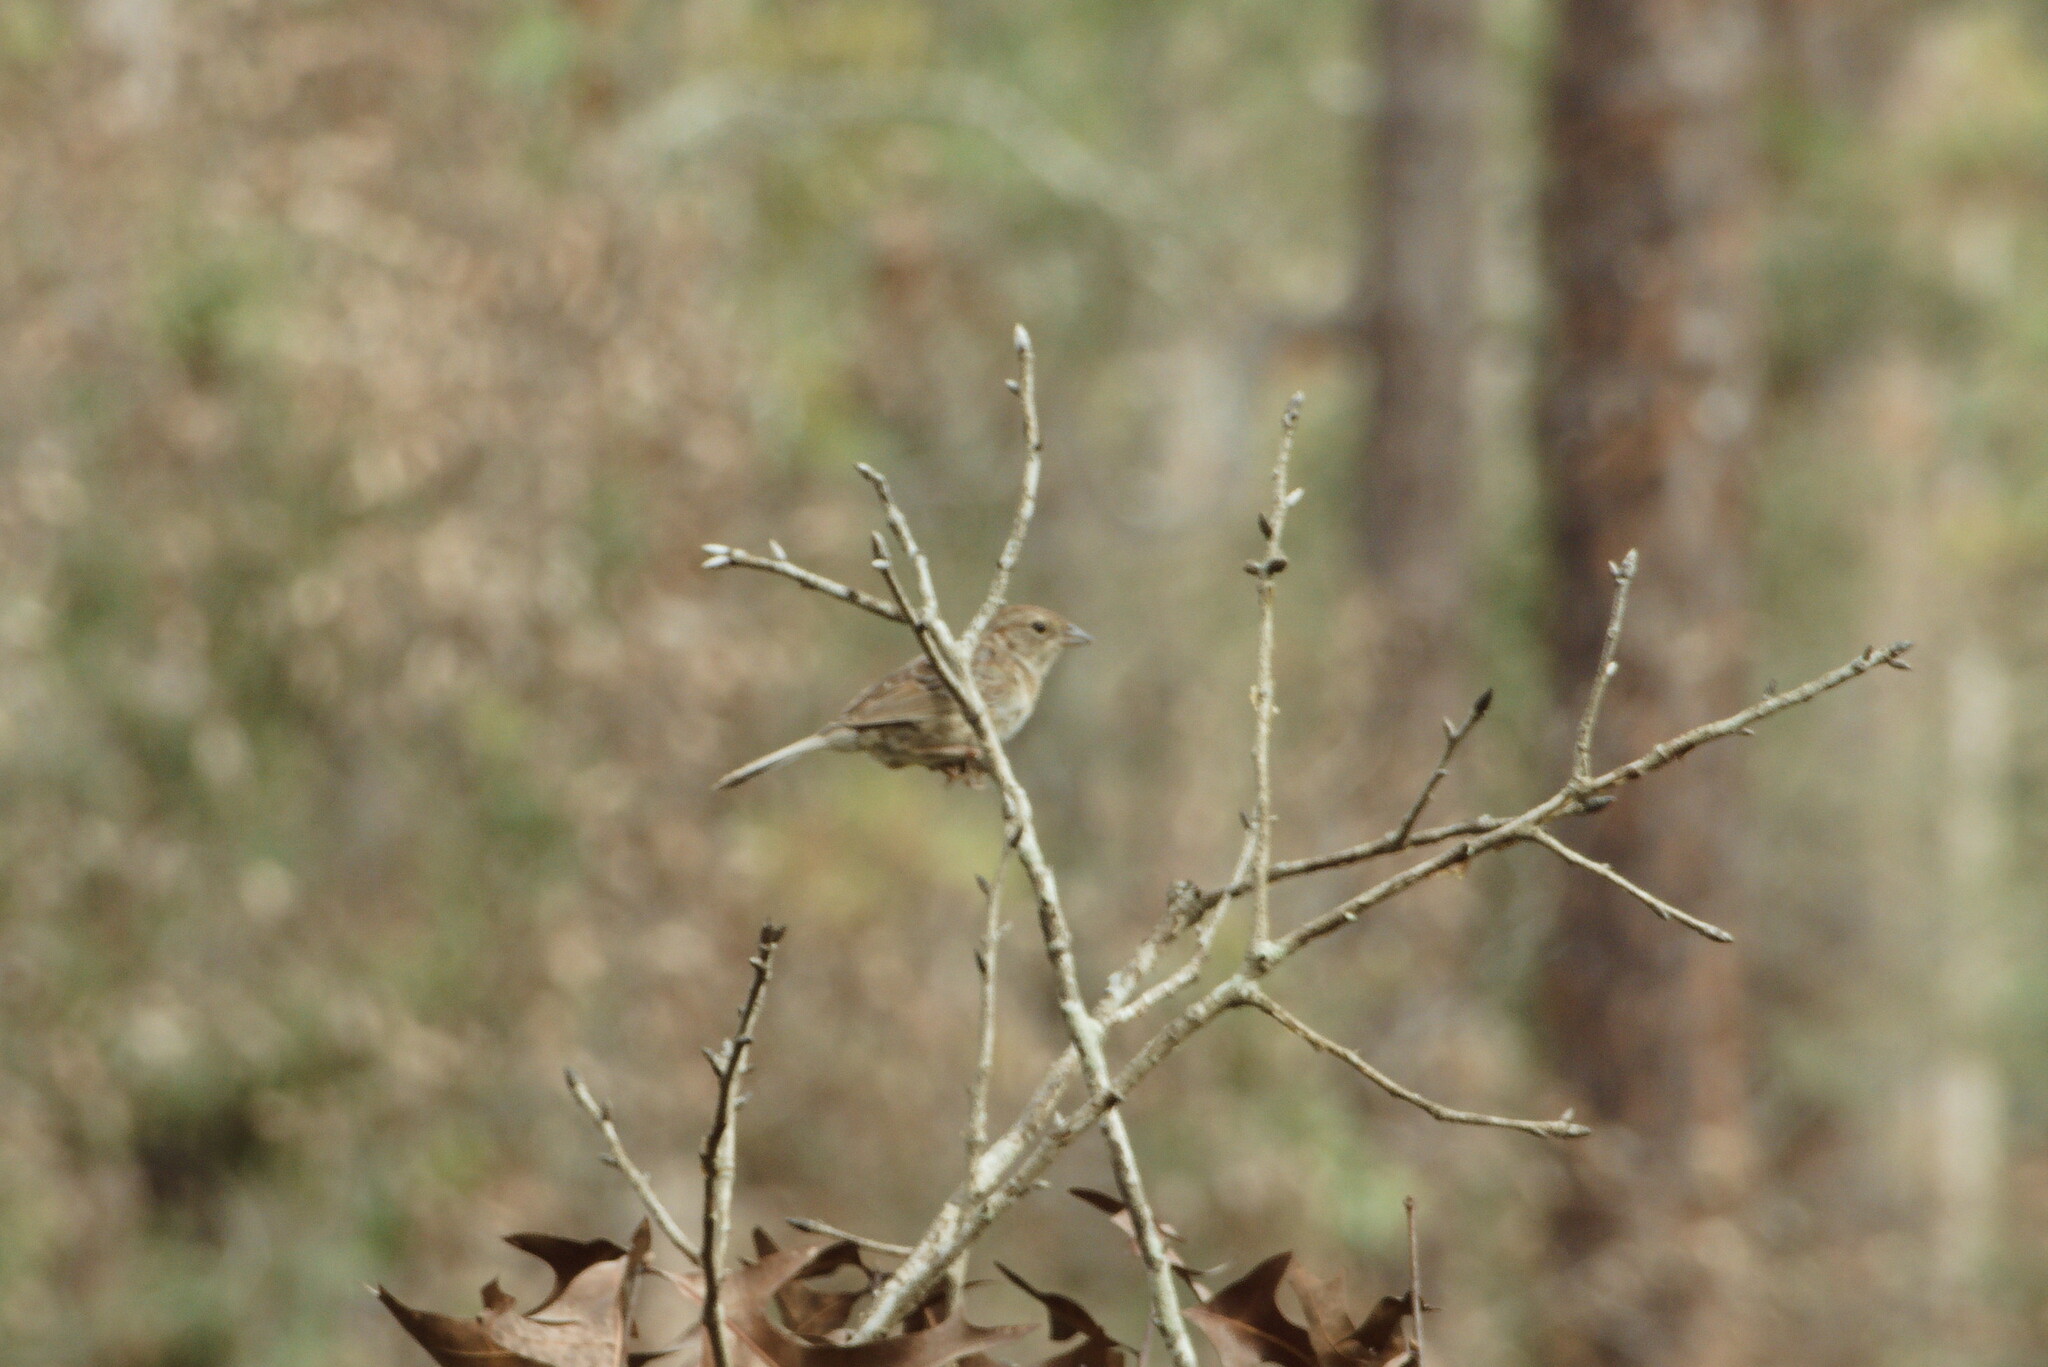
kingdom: Animalia
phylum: Chordata
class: Aves
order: Passeriformes
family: Passerellidae
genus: Peucaea
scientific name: Peucaea aestivalis
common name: Bachman's sparrow
